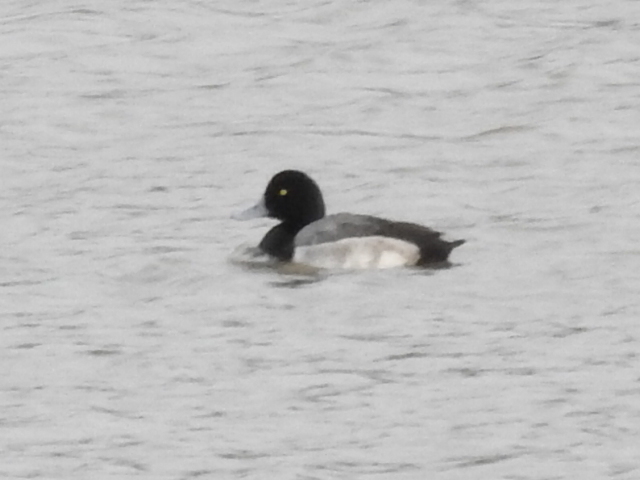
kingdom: Animalia
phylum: Chordata
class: Aves
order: Anseriformes
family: Anatidae
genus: Aythya
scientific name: Aythya marila
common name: Greater scaup
